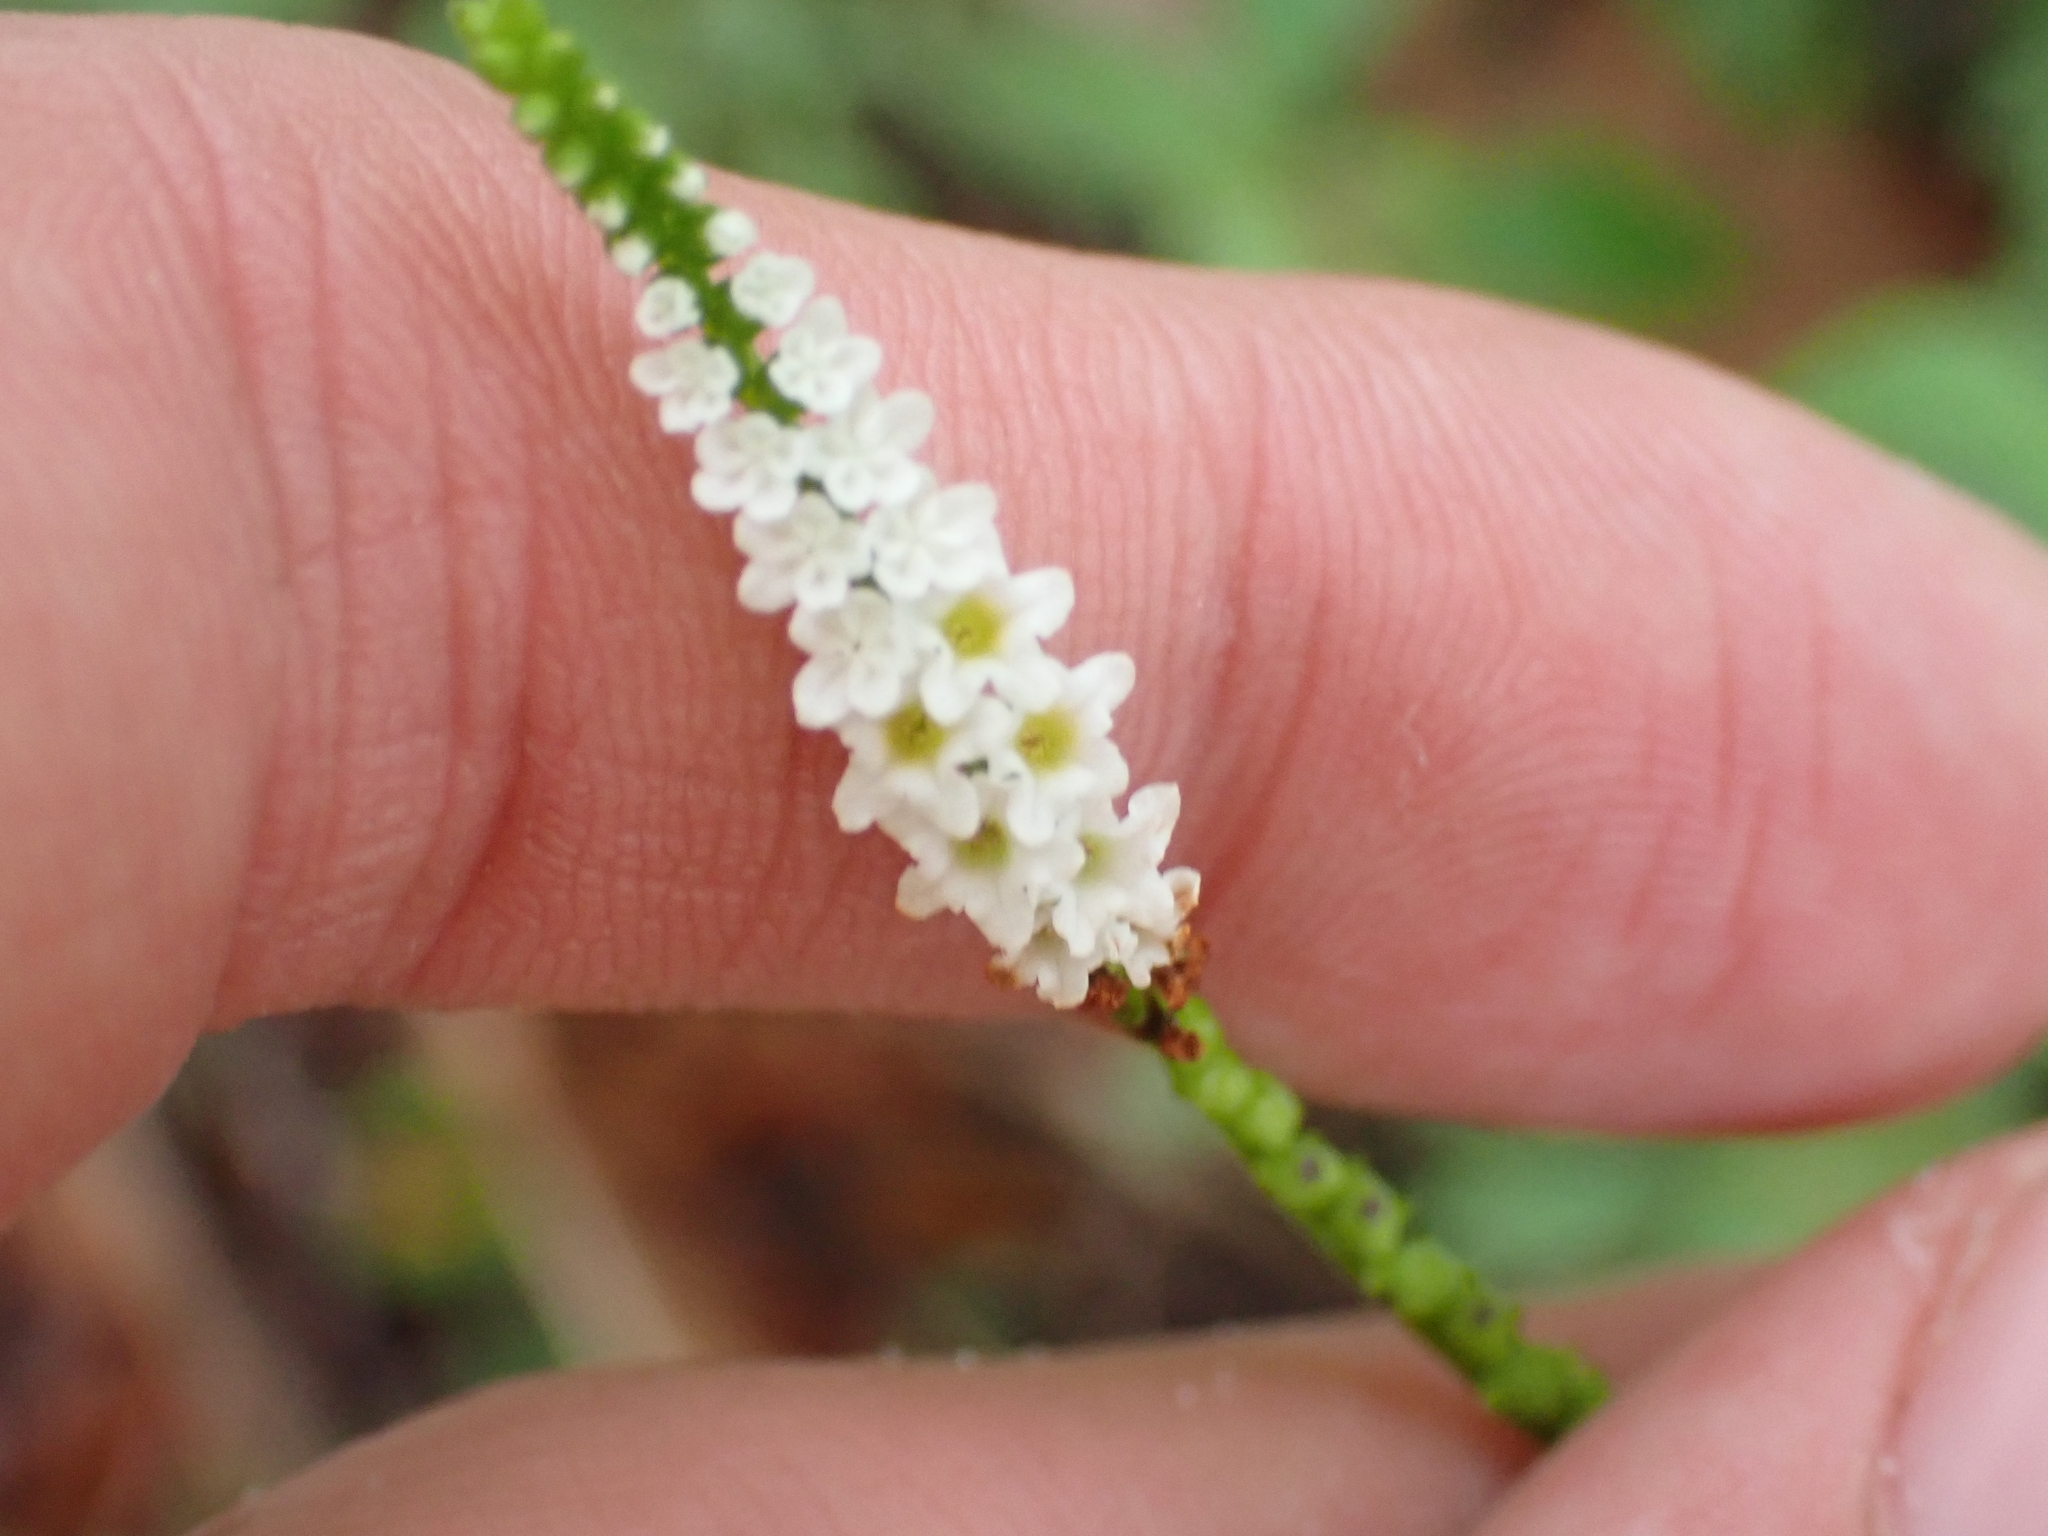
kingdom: Plantae
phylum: Tracheophyta
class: Magnoliopsida
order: Boraginales
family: Heliotropiaceae
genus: Heliotropium
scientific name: Heliotropium angiospermum
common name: Eye bright
